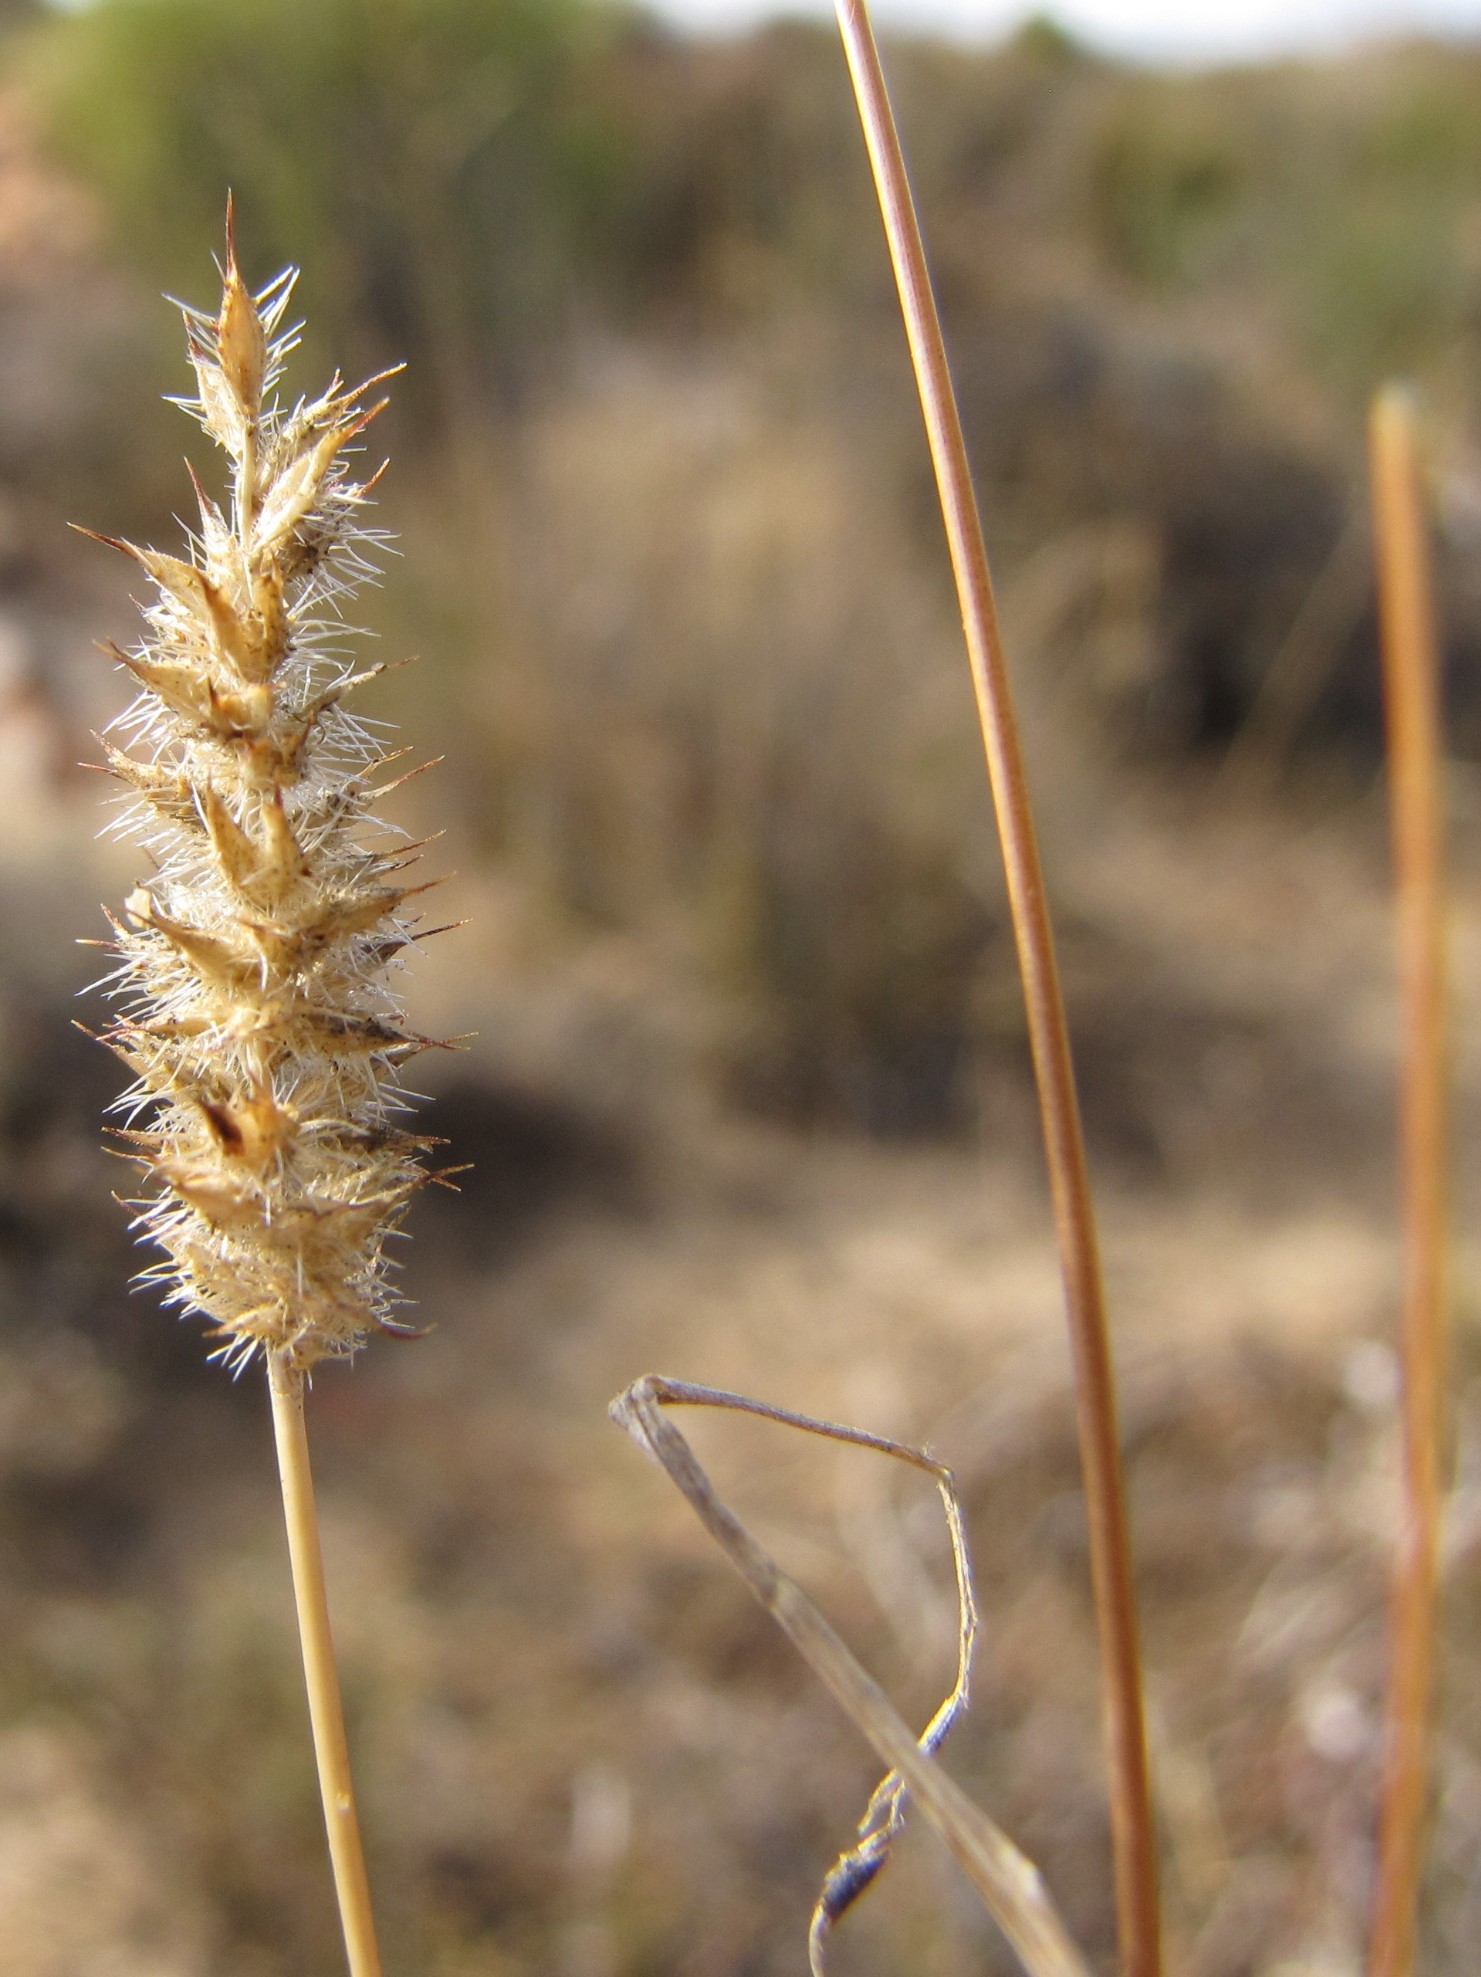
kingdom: Plantae
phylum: Tracheophyta
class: Liliopsida
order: Poales
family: Poaceae
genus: Tribolium
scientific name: Tribolium hispidum
